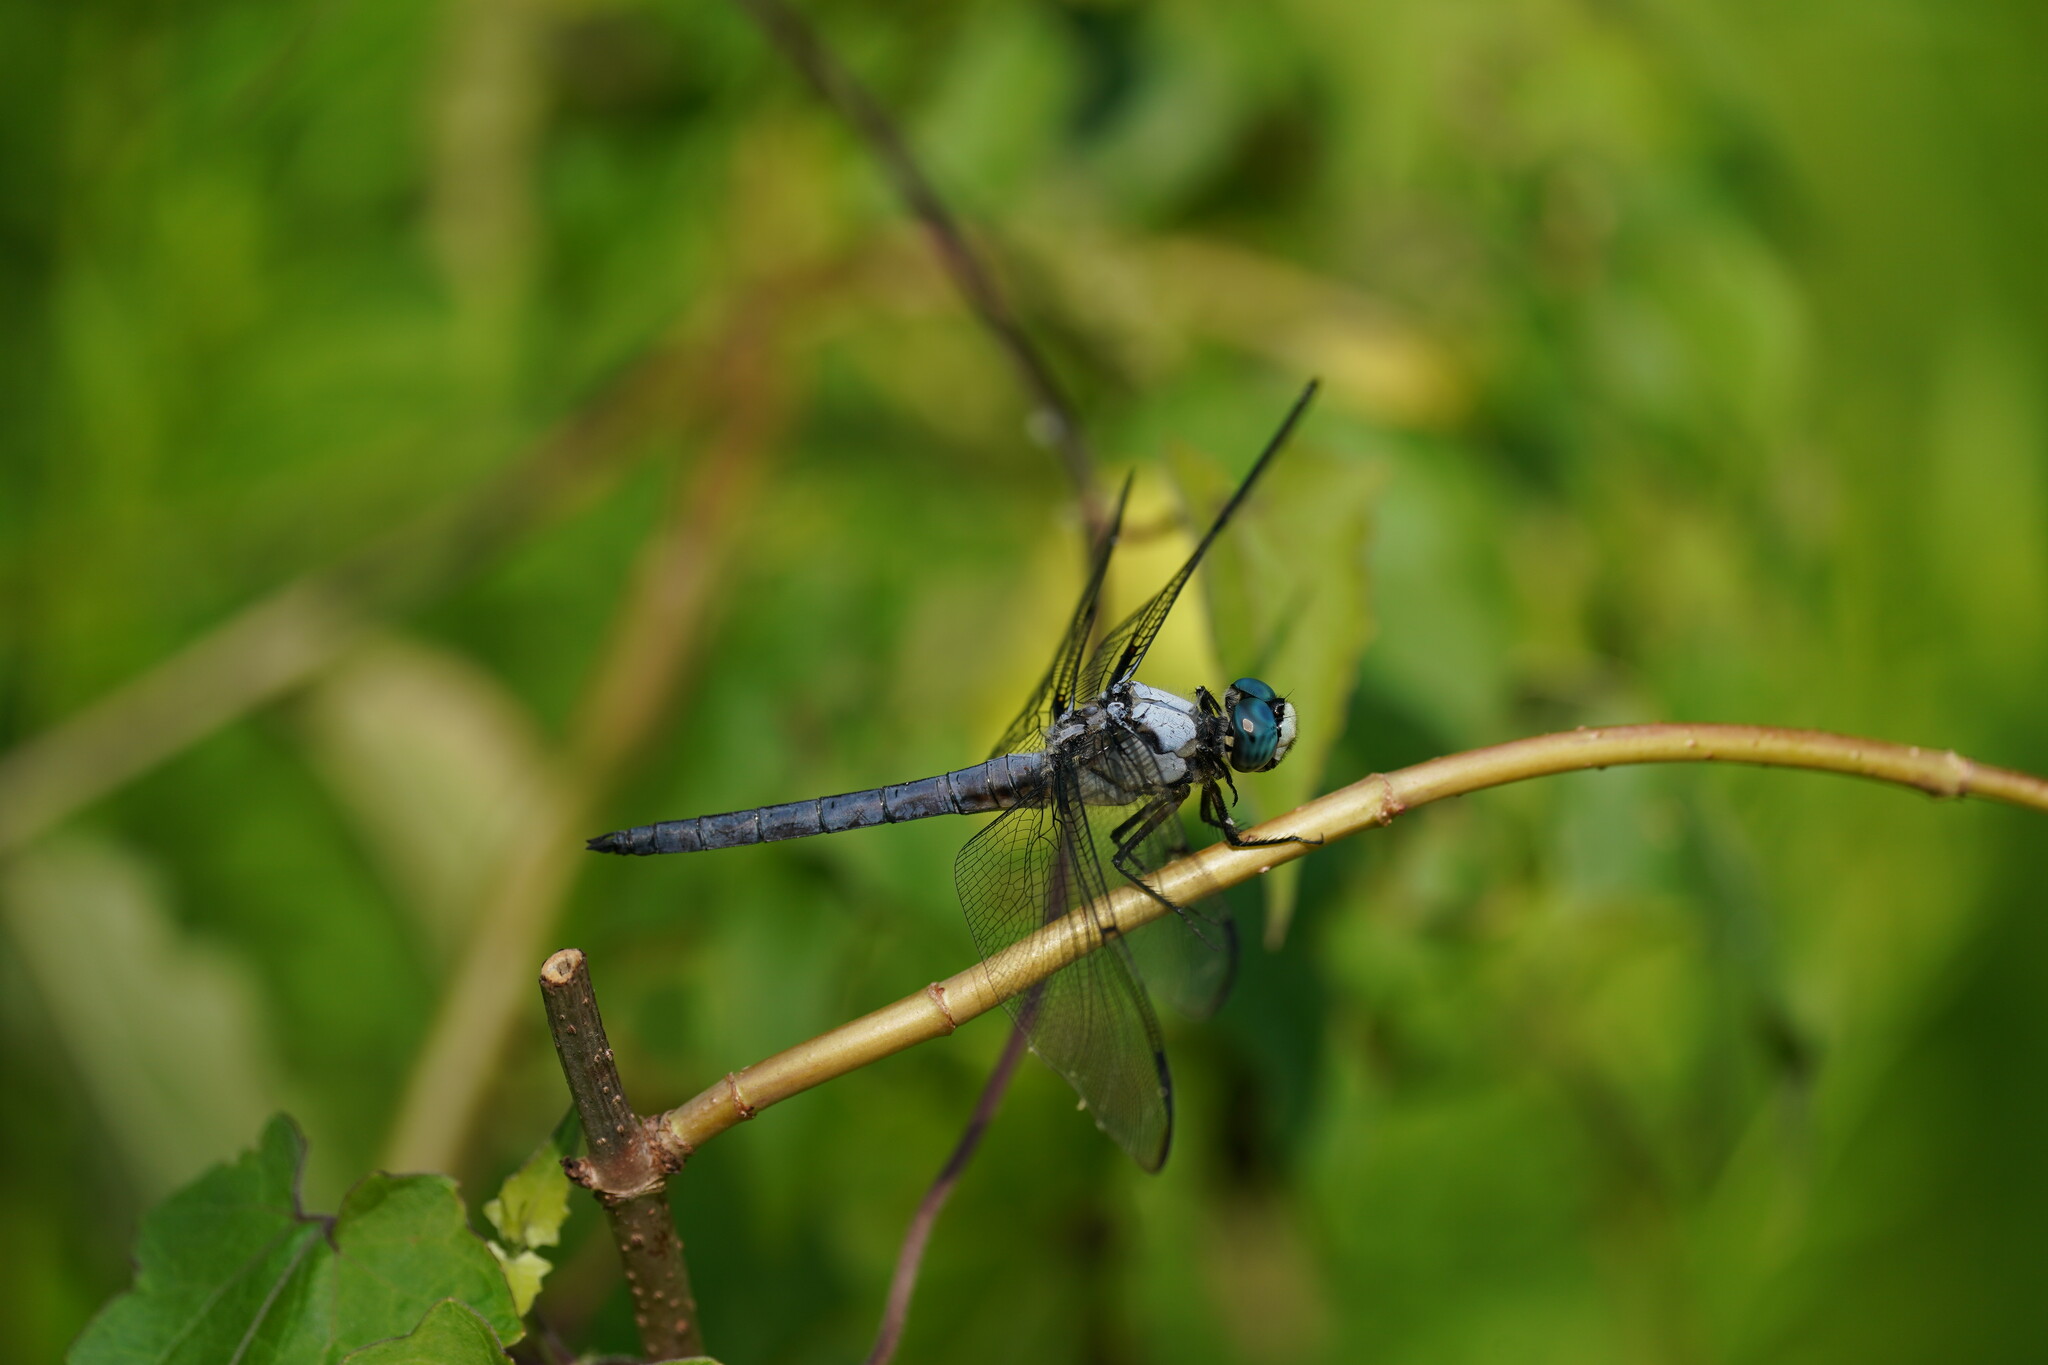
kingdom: Animalia
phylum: Arthropoda
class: Insecta
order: Odonata
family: Libellulidae
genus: Libellula
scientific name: Libellula vibrans
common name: Great blue skimmer
